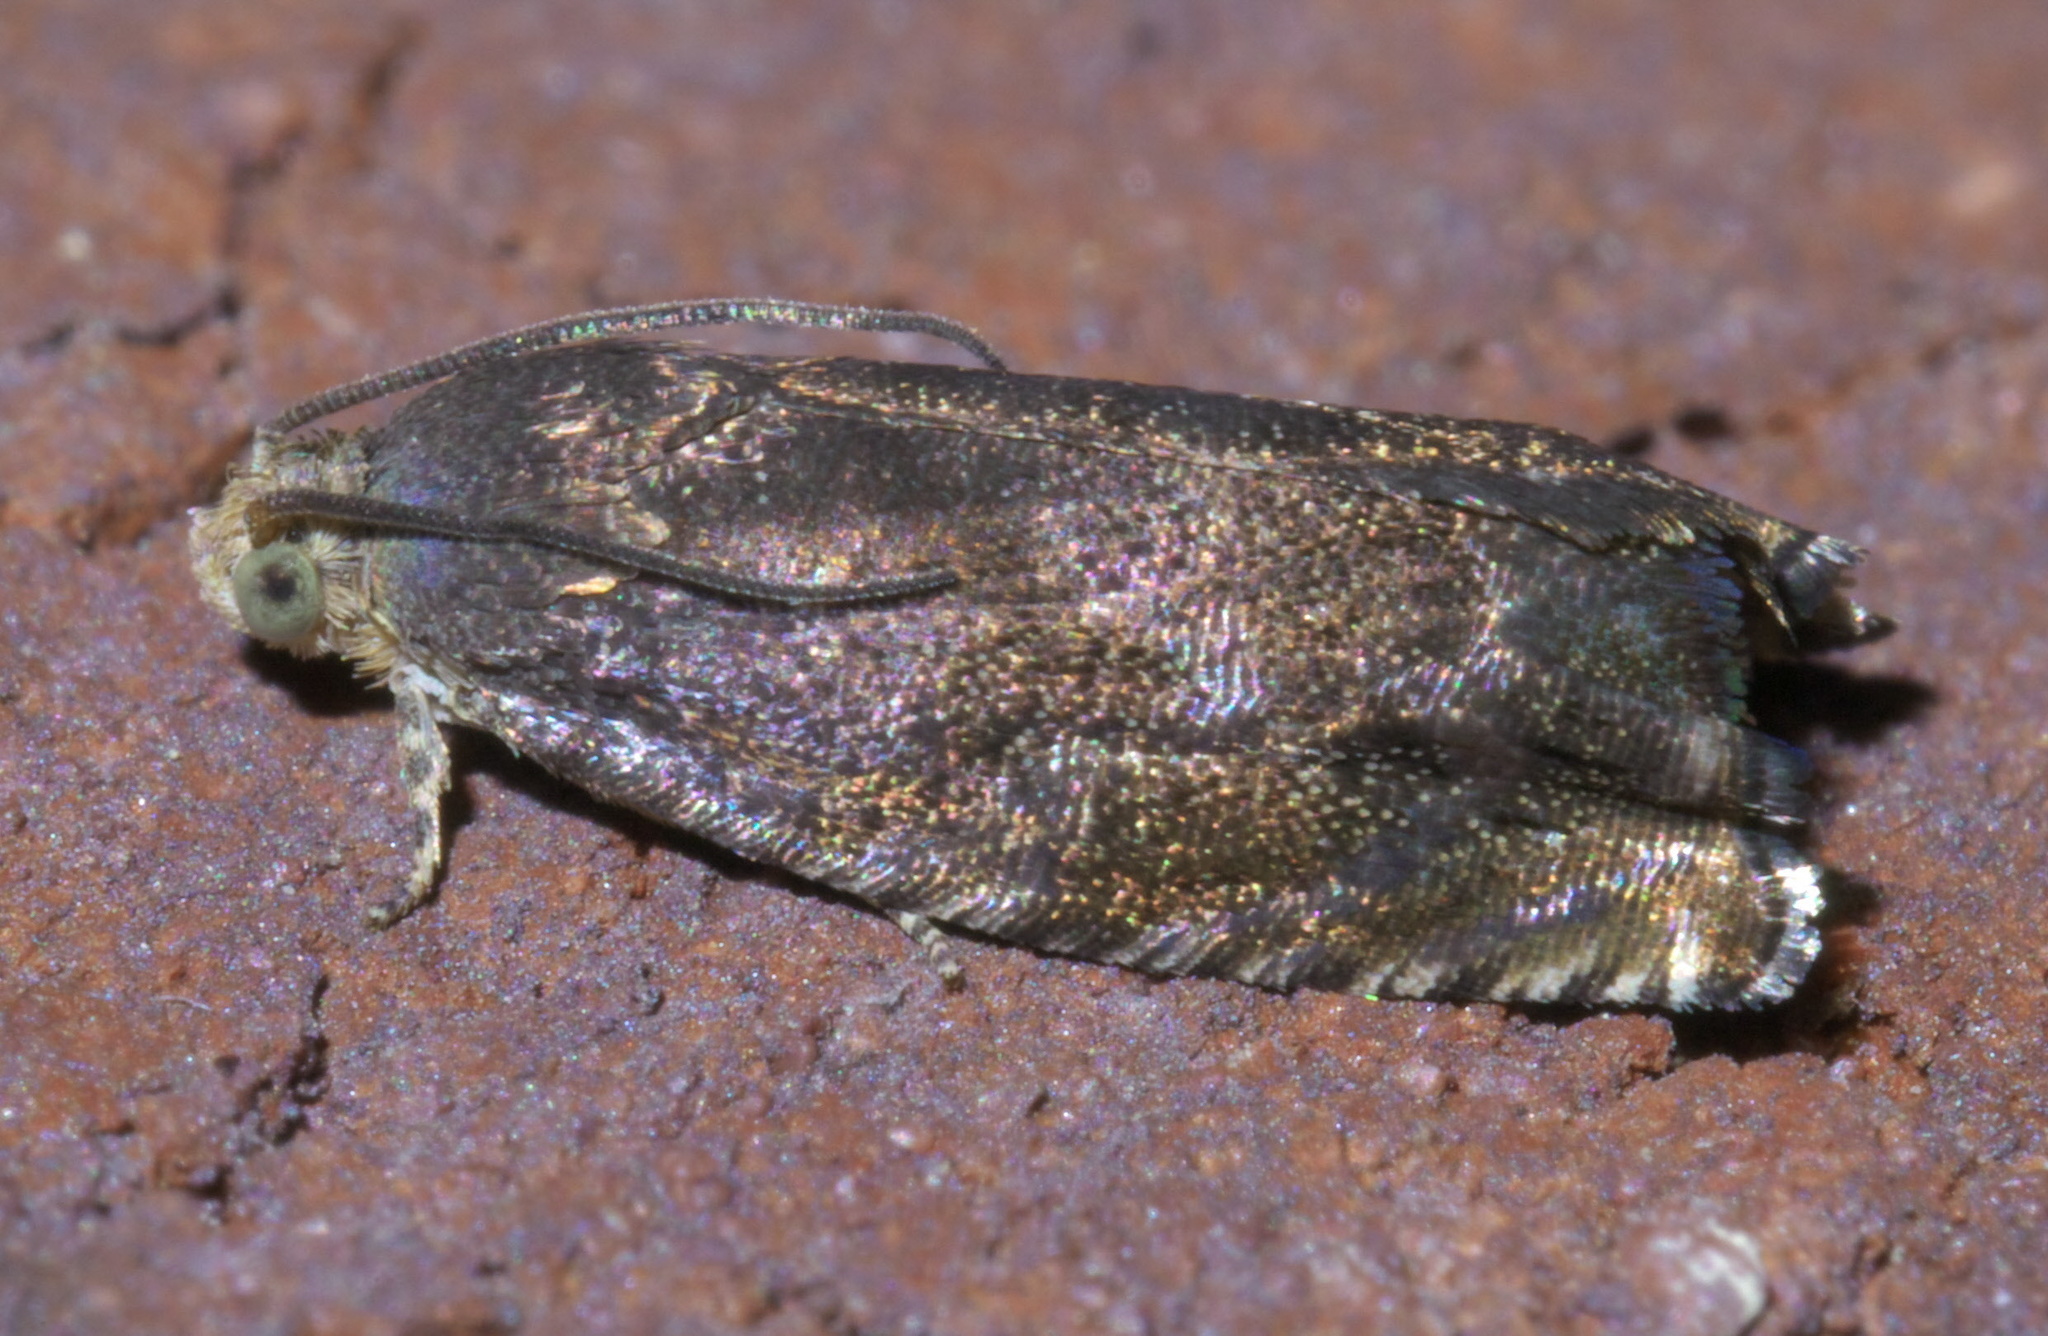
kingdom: Animalia
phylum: Arthropoda
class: Insecta
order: Lepidoptera
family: Tortricidae
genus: Cydia
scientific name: Cydia caryana
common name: Hickory shuckworm moth
